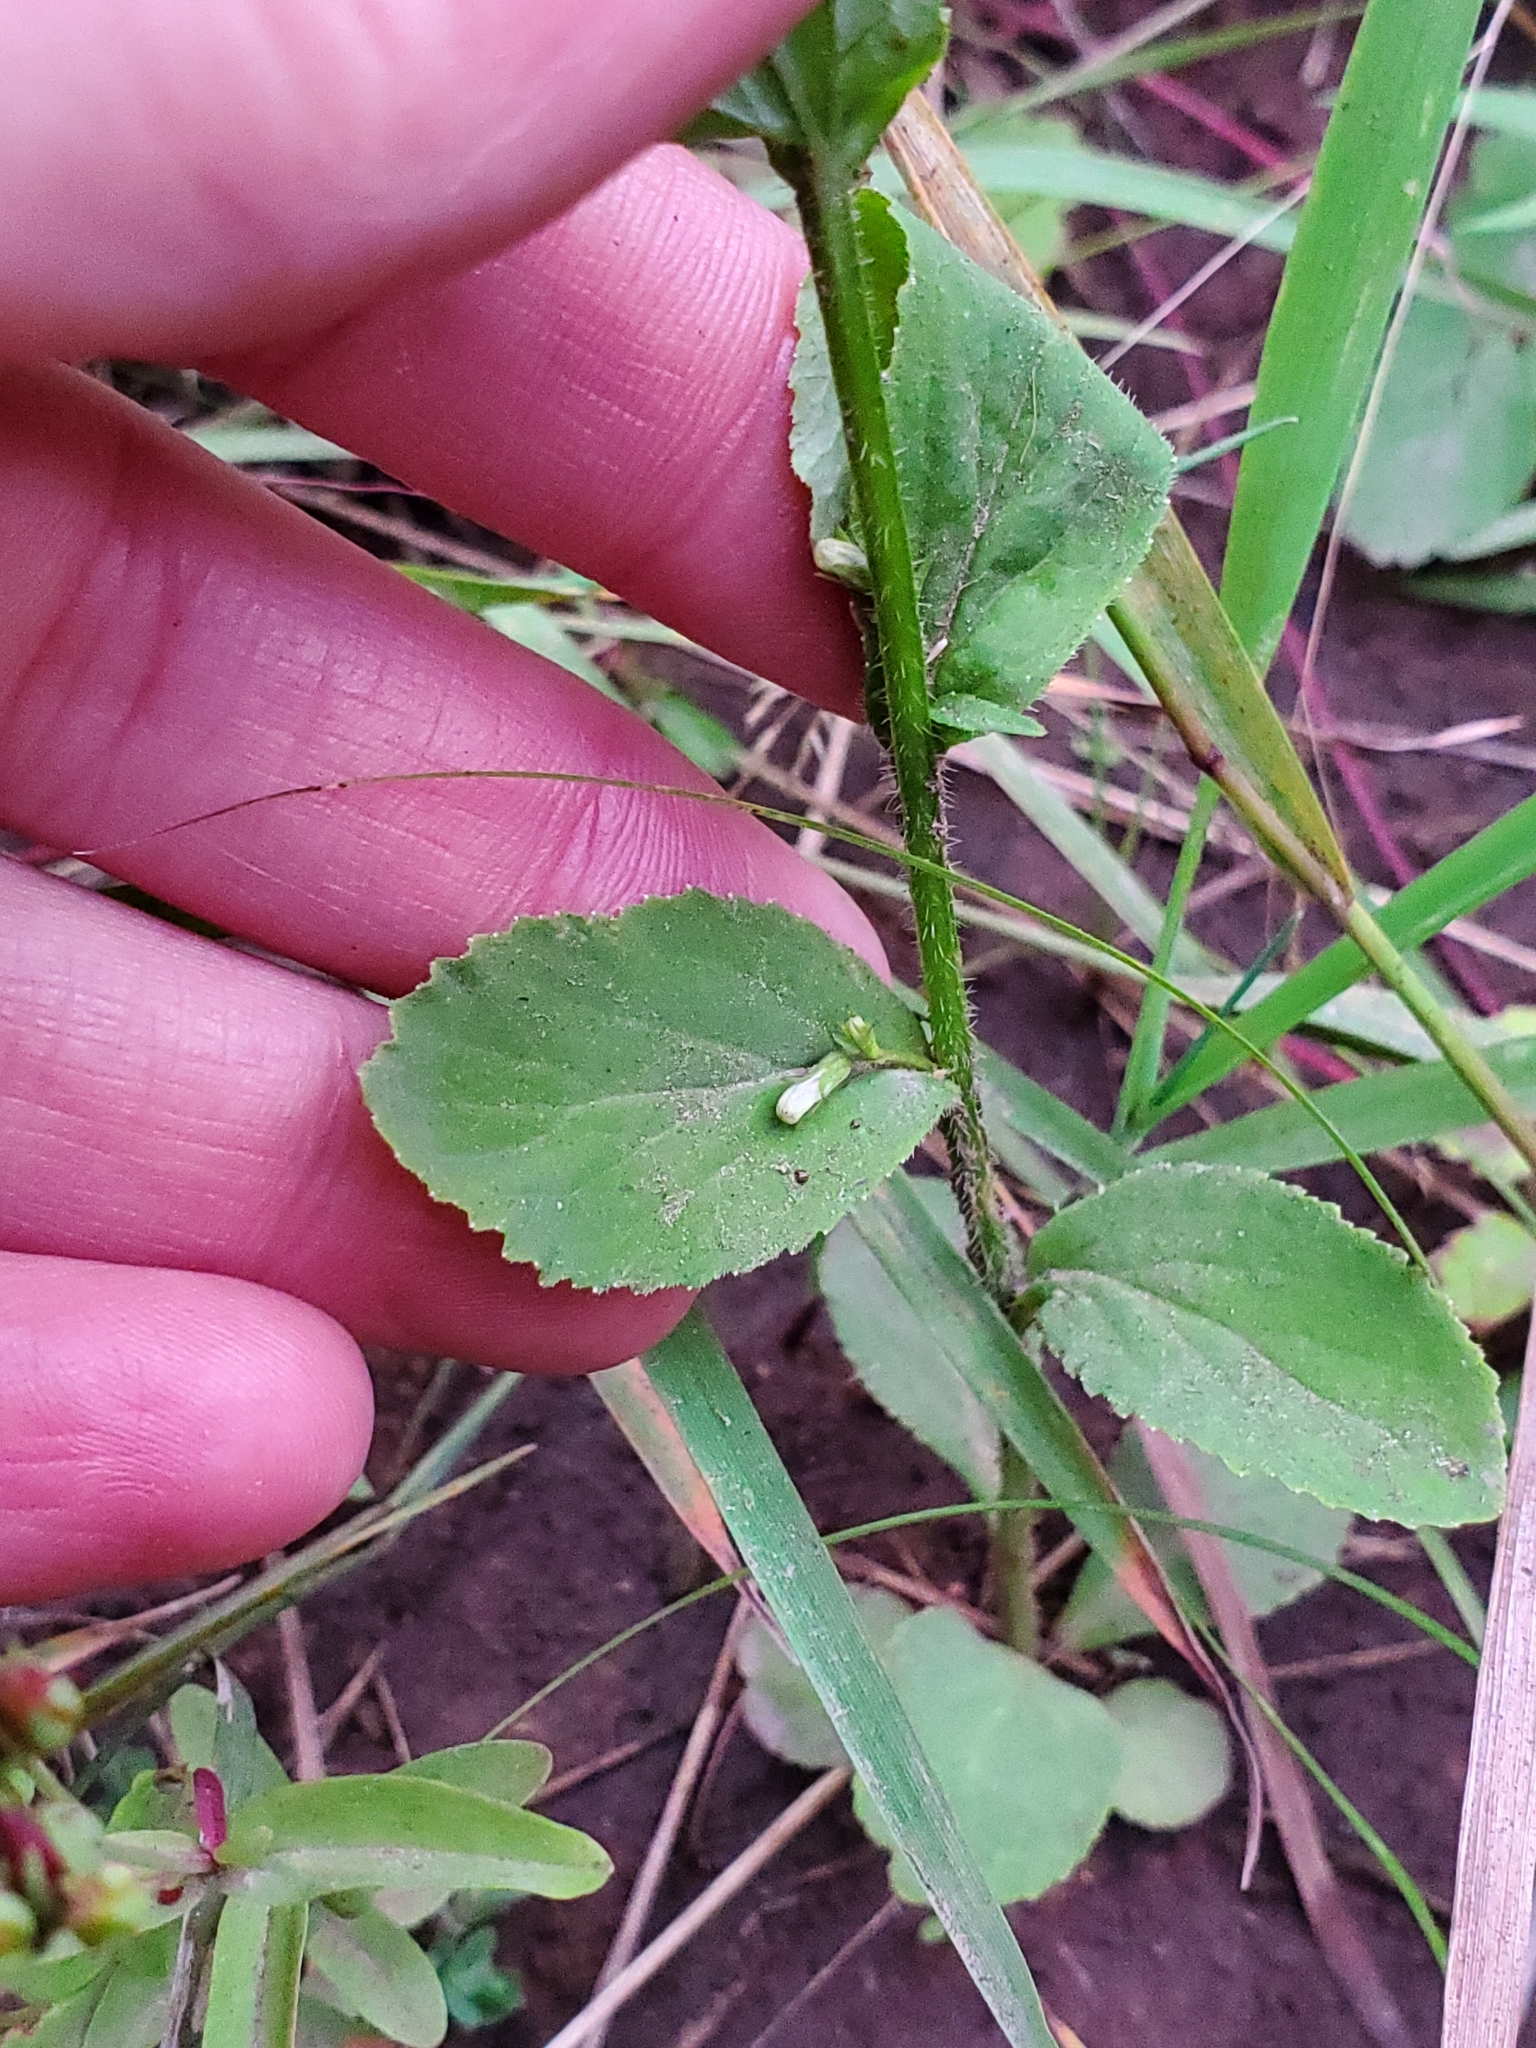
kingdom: Plantae
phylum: Tracheophyta
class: Magnoliopsida
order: Asterales
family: Campanulaceae
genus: Lobelia
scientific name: Lobelia inflata
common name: Indian tobacco
